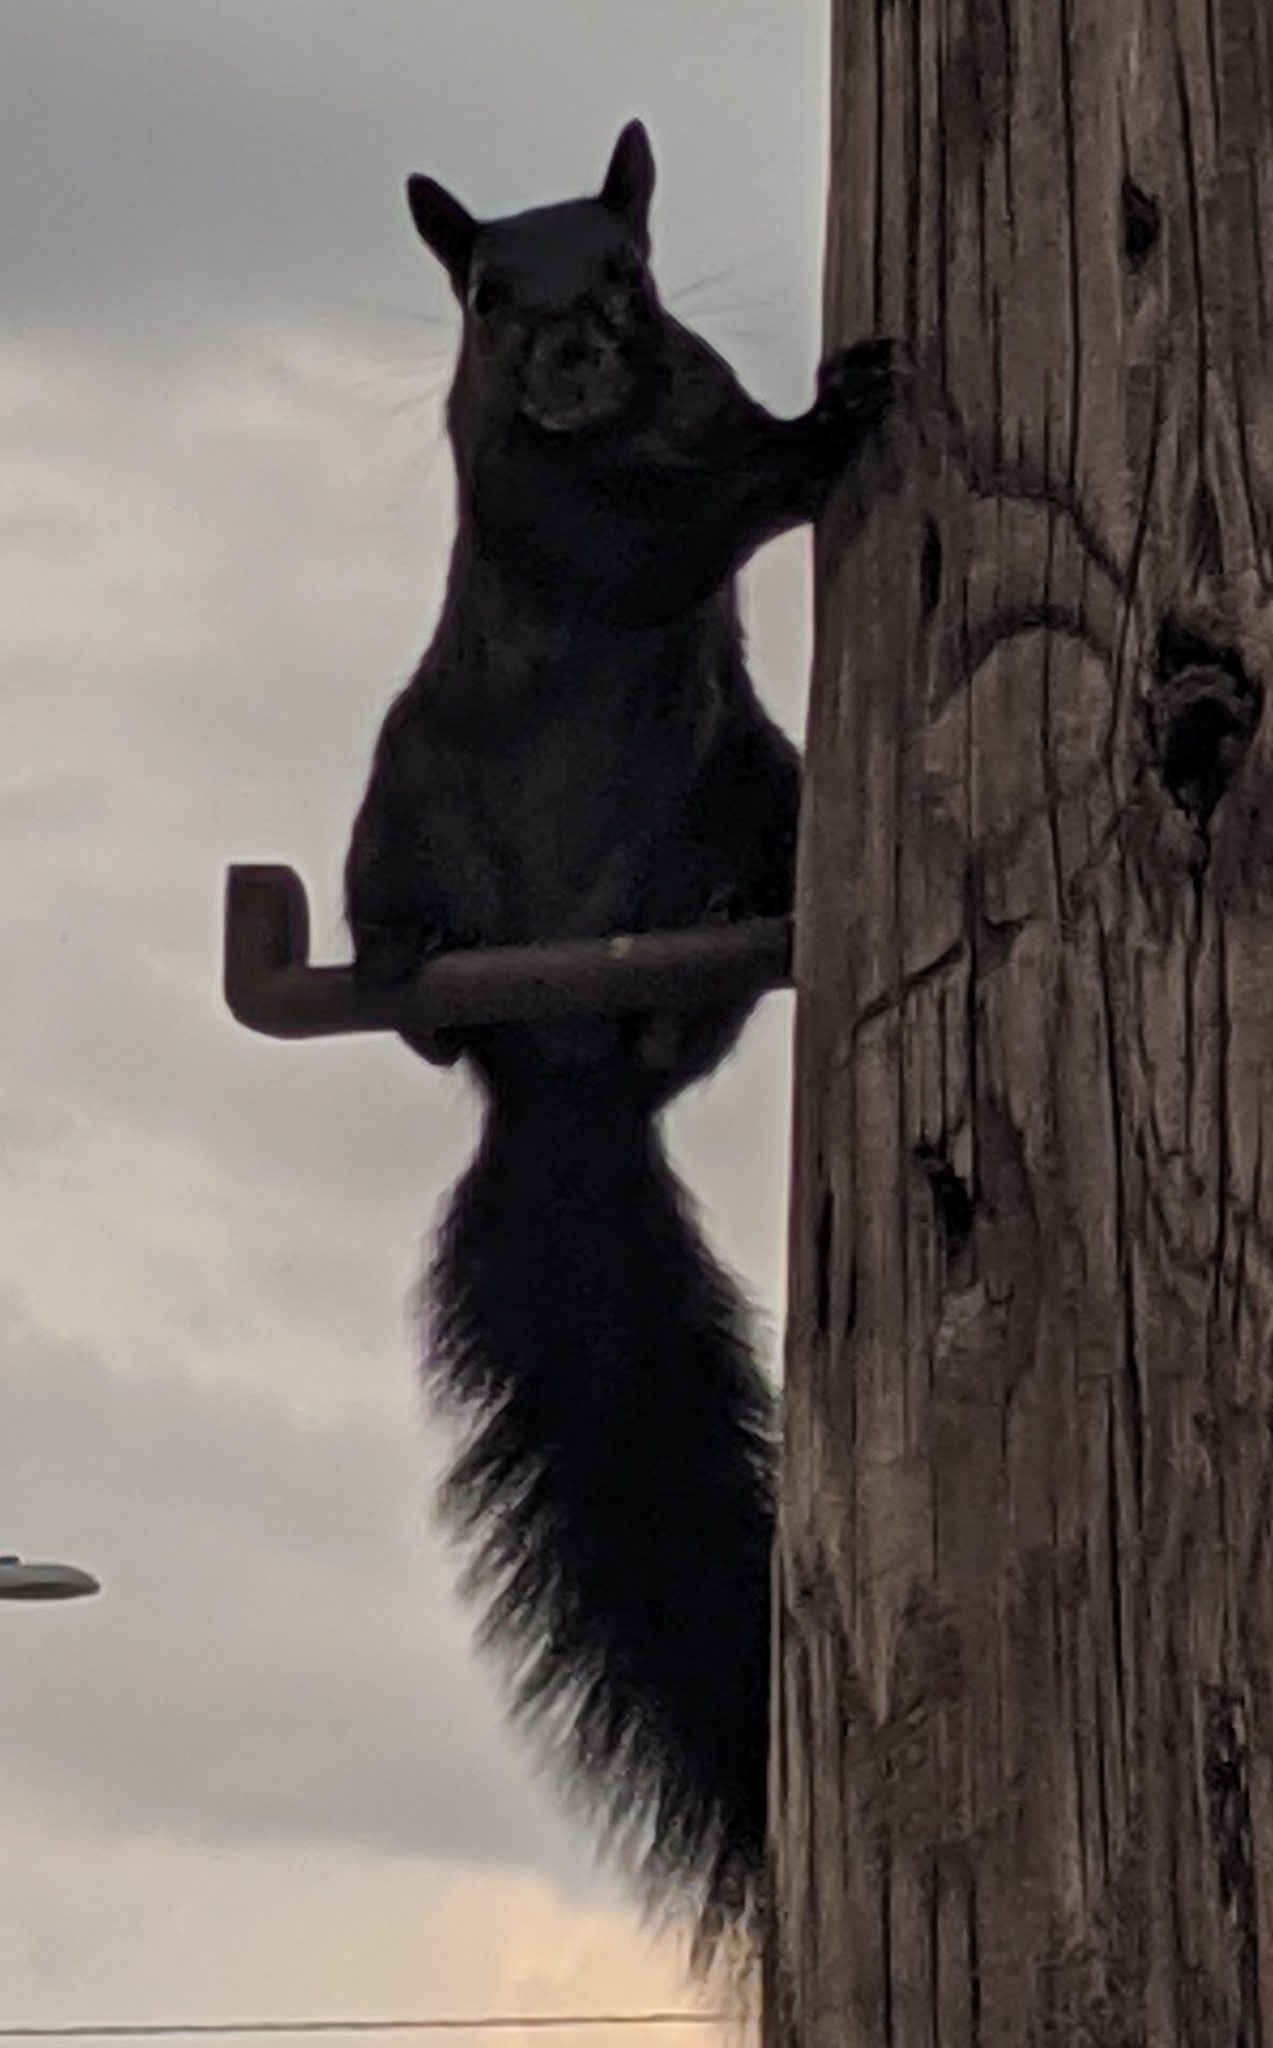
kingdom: Animalia
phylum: Chordata
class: Mammalia
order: Rodentia
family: Sciuridae
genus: Sciurus
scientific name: Sciurus carolinensis
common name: Eastern gray squirrel
